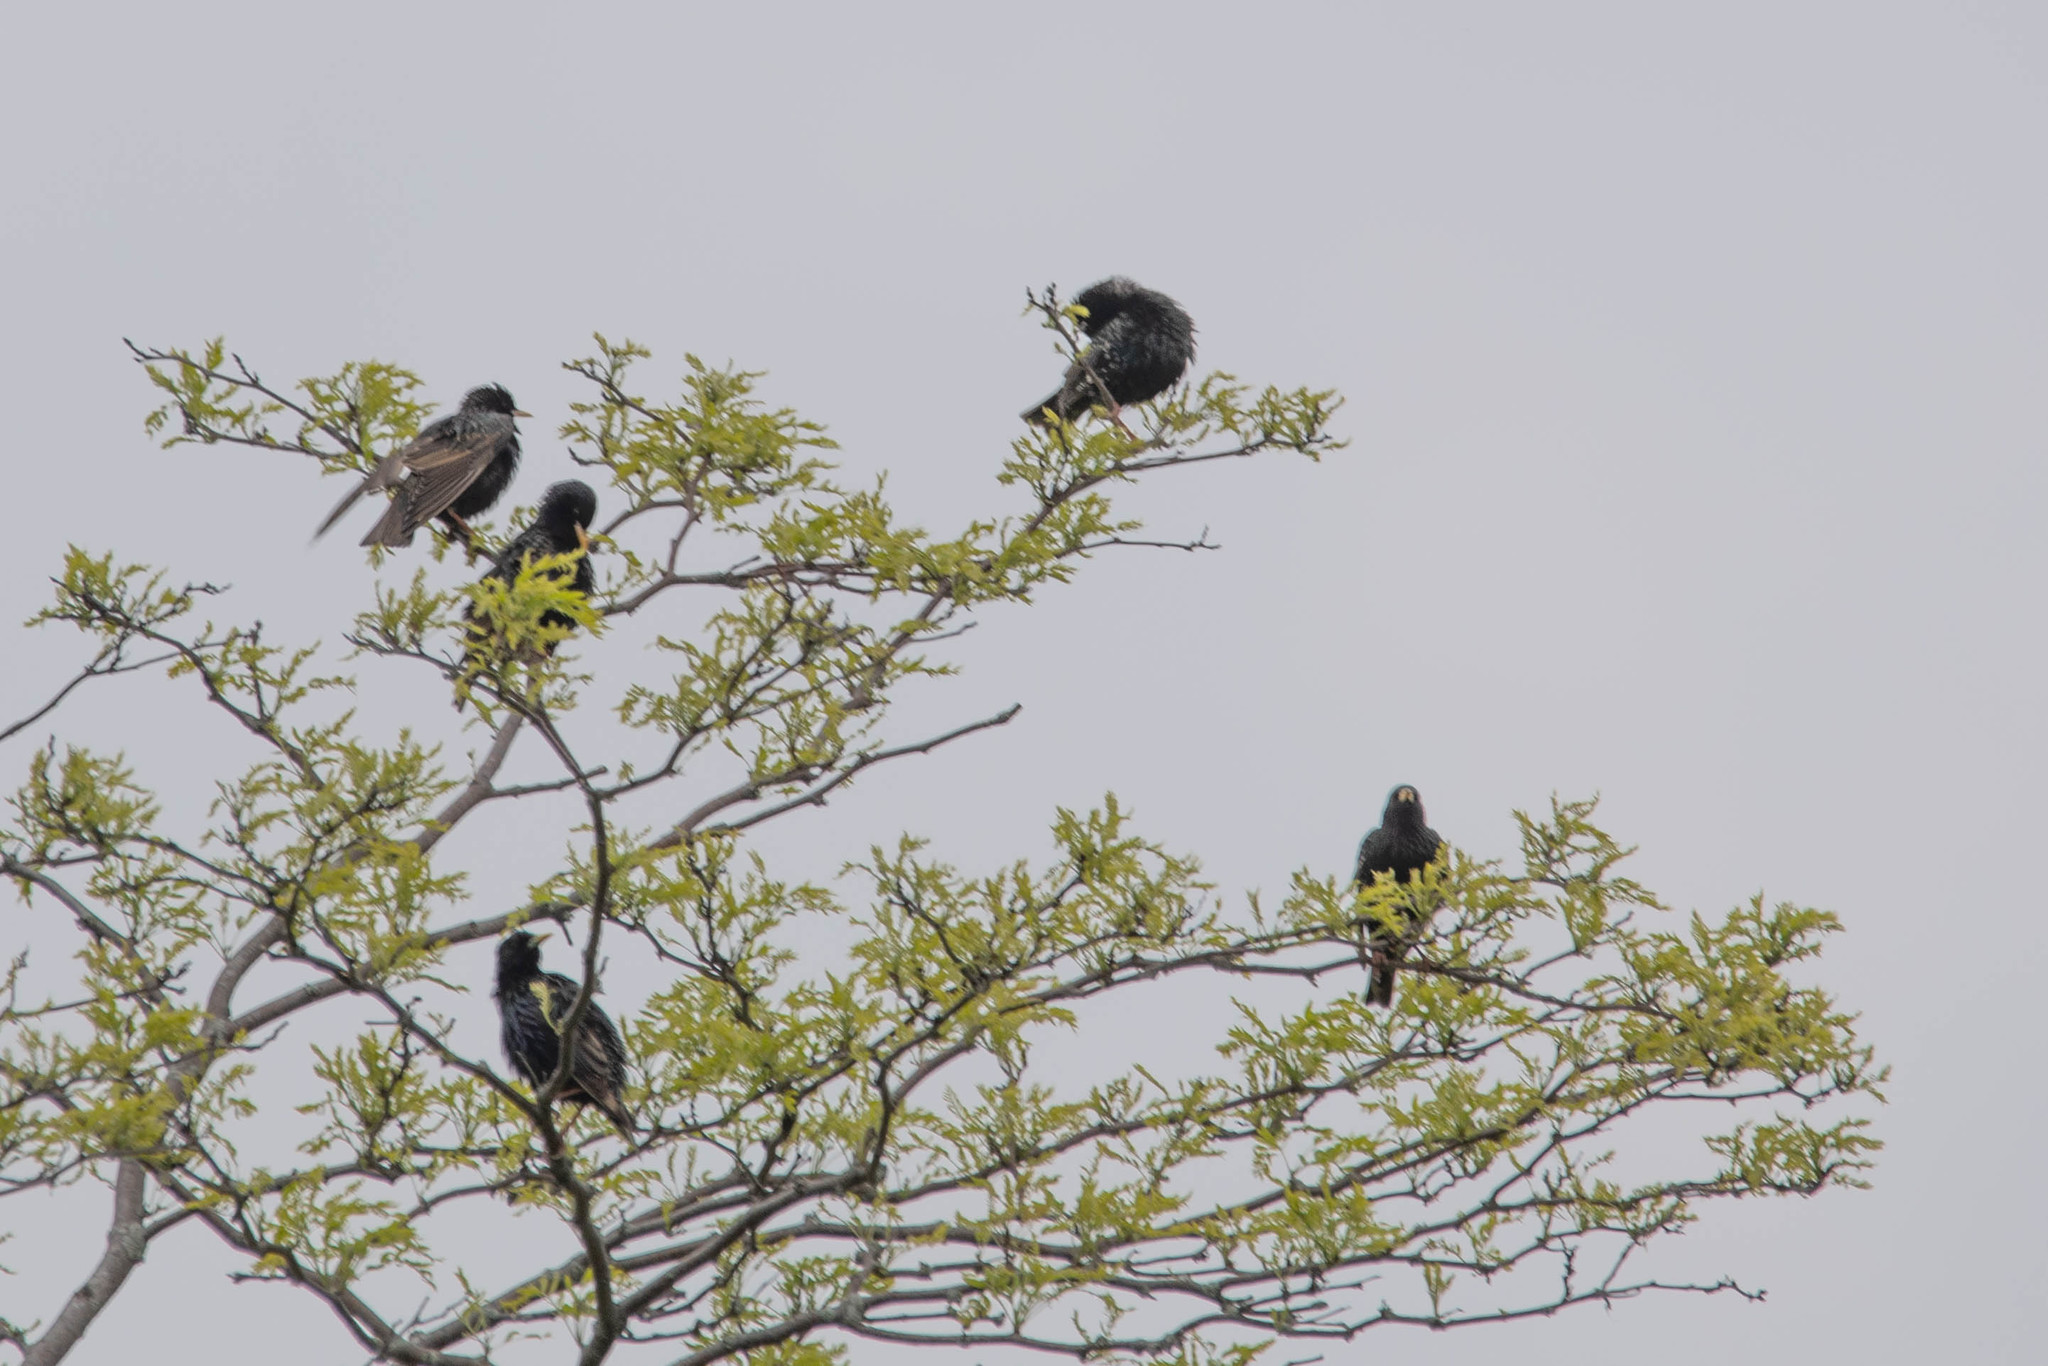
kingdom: Animalia
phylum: Chordata
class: Aves
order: Passeriformes
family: Sturnidae
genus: Sturnus
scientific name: Sturnus vulgaris
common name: Common starling
